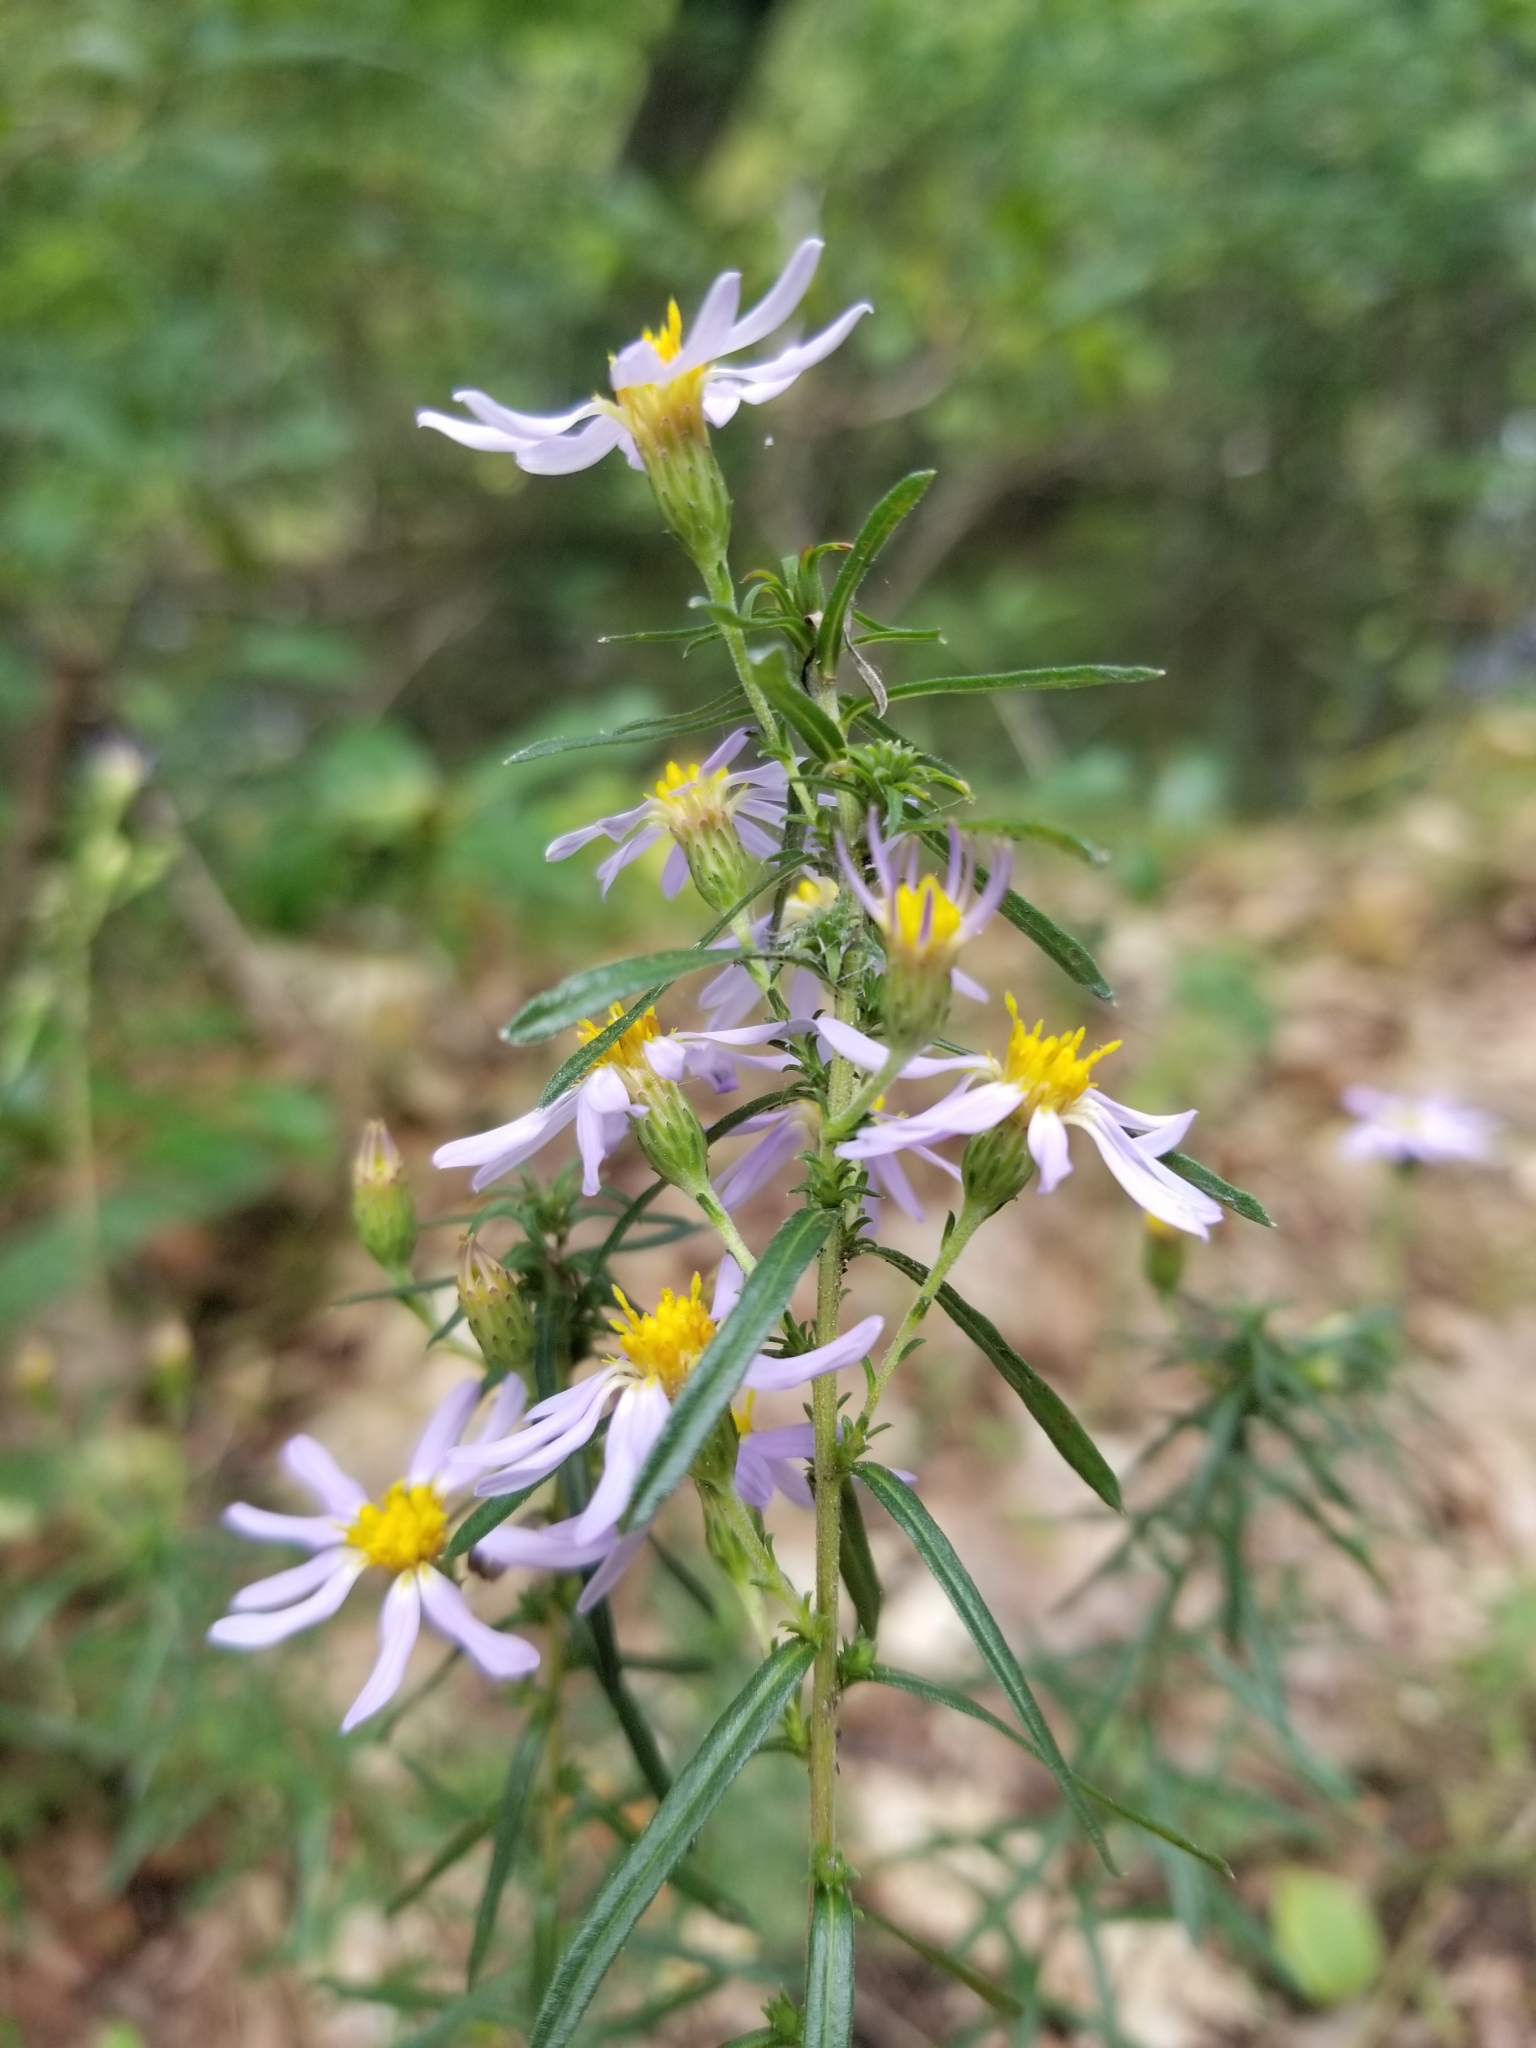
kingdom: Plantae
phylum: Tracheophyta
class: Magnoliopsida
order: Asterales
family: Asteraceae
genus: Ionactis
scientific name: Ionactis linariifolia
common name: Flax-leaf aster
